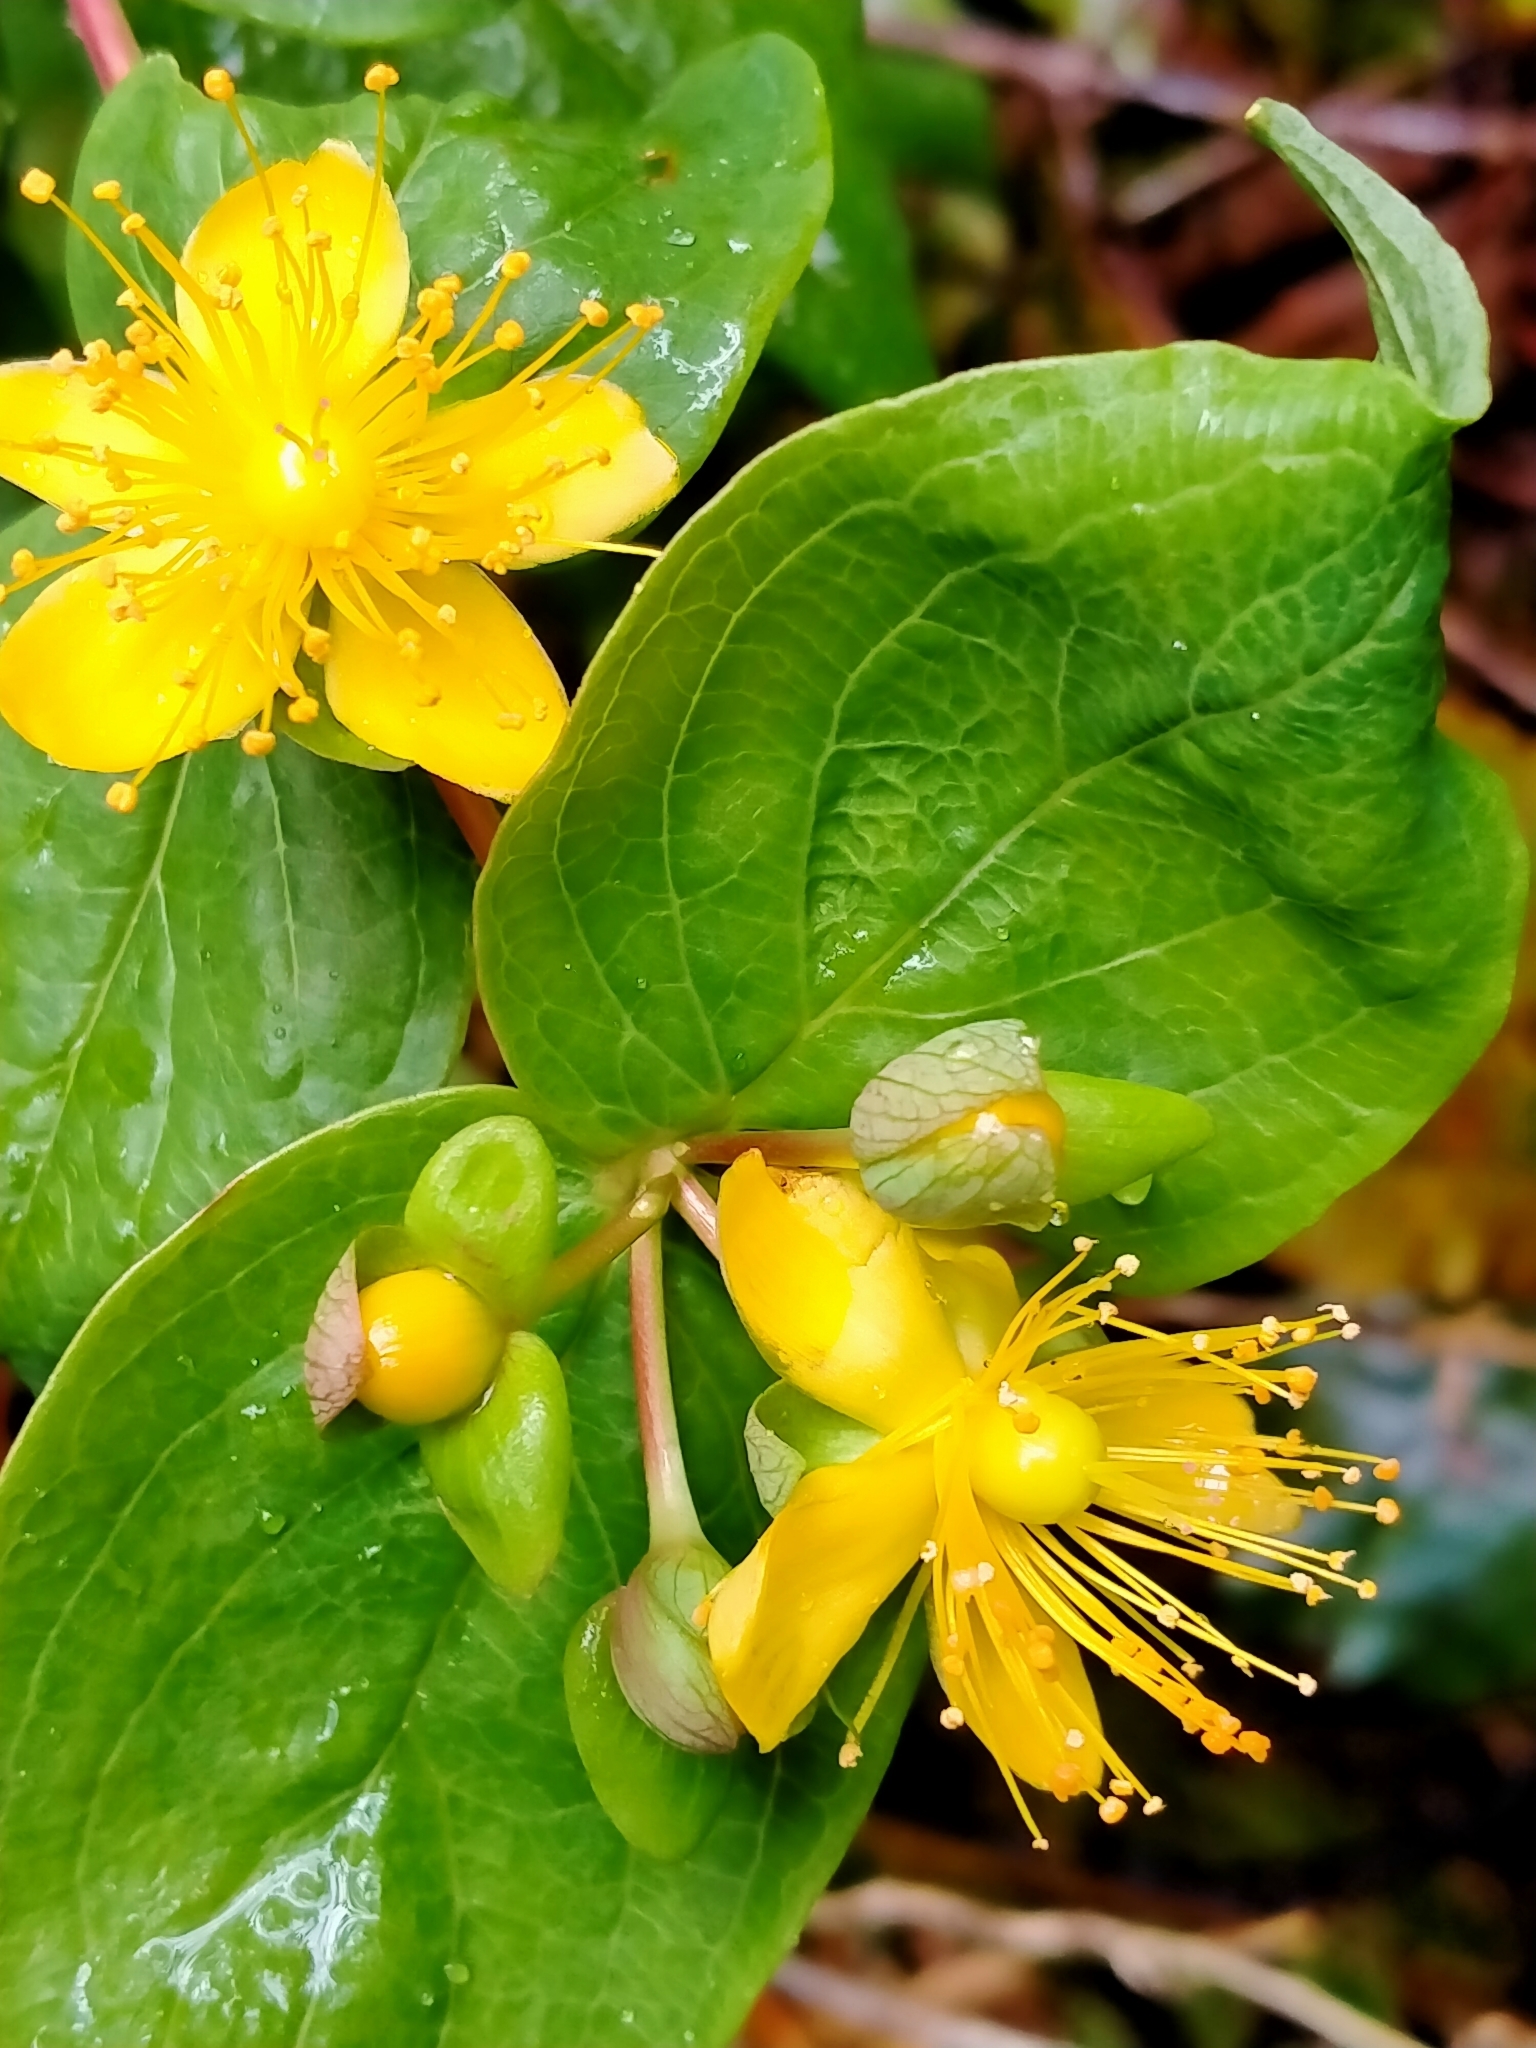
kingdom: Plantae
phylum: Tracheophyta
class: Magnoliopsida
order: Malpighiales
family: Hypericaceae
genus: Hypericum
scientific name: Hypericum androsaemum
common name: Sweet-amber
